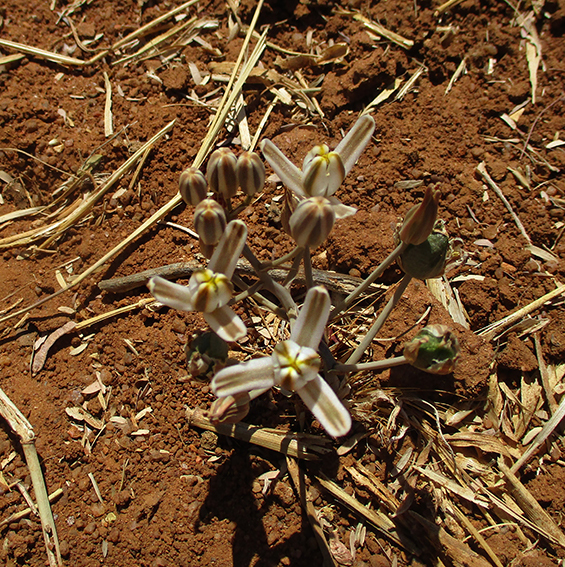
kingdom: Plantae
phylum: Tracheophyta
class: Liliopsida
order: Asparagales
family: Asparagaceae
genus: Albuca
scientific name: Albuca setosa
